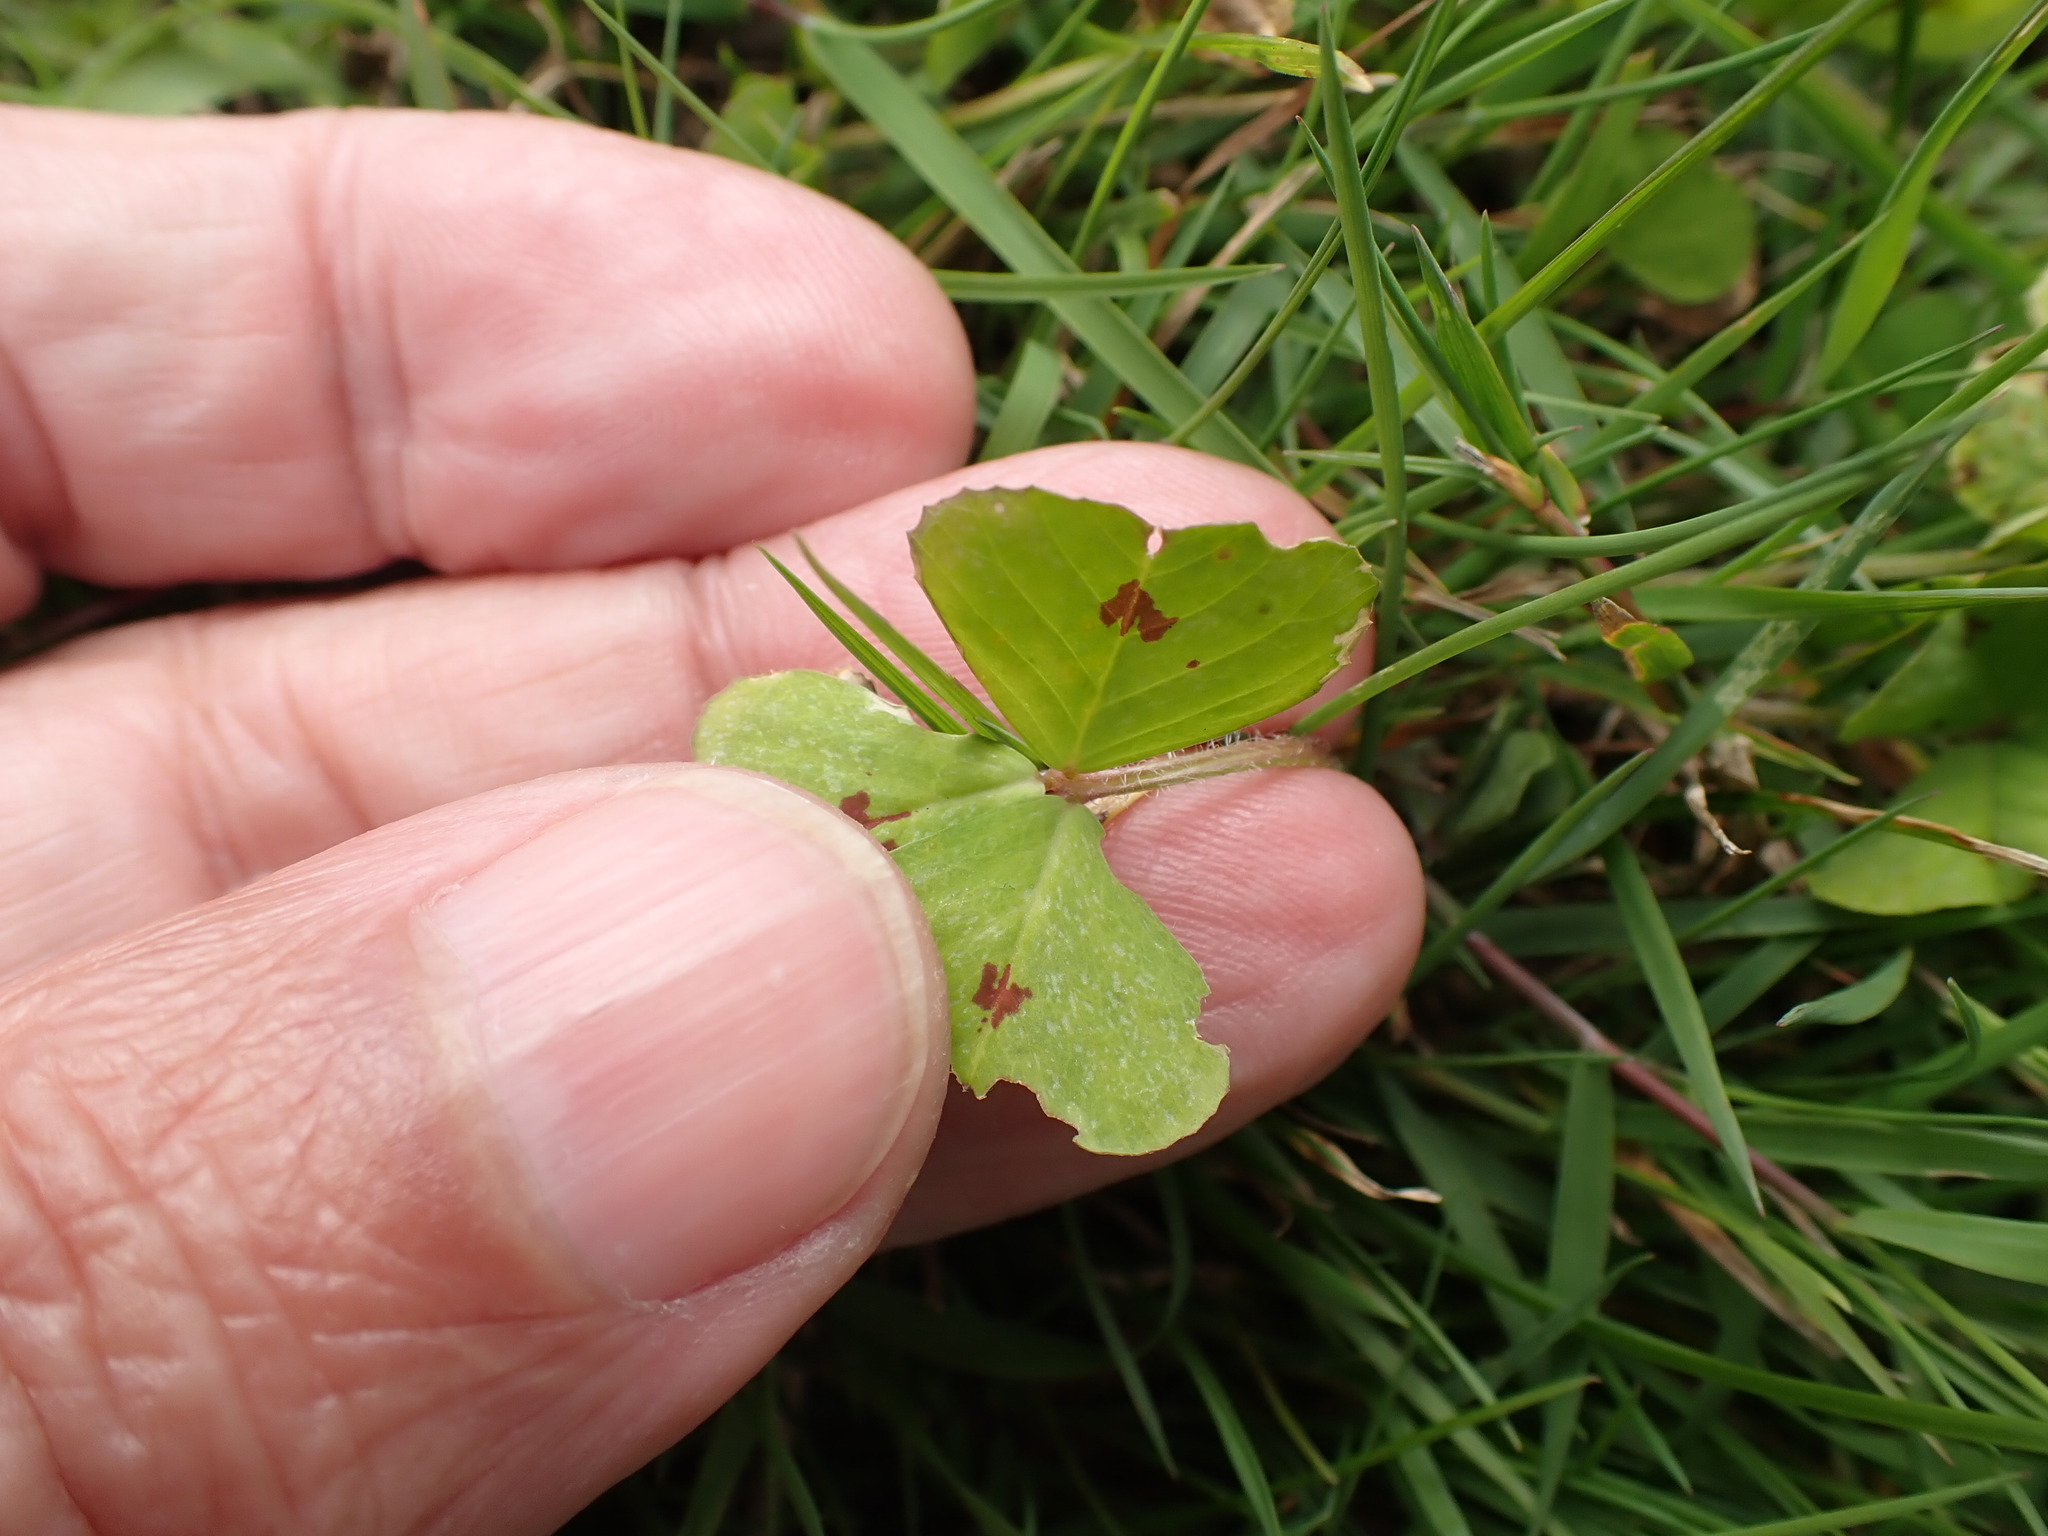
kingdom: Plantae
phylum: Tracheophyta
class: Magnoliopsida
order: Fabales
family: Fabaceae
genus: Medicago
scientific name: Medicago arabica
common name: Spotted medick
